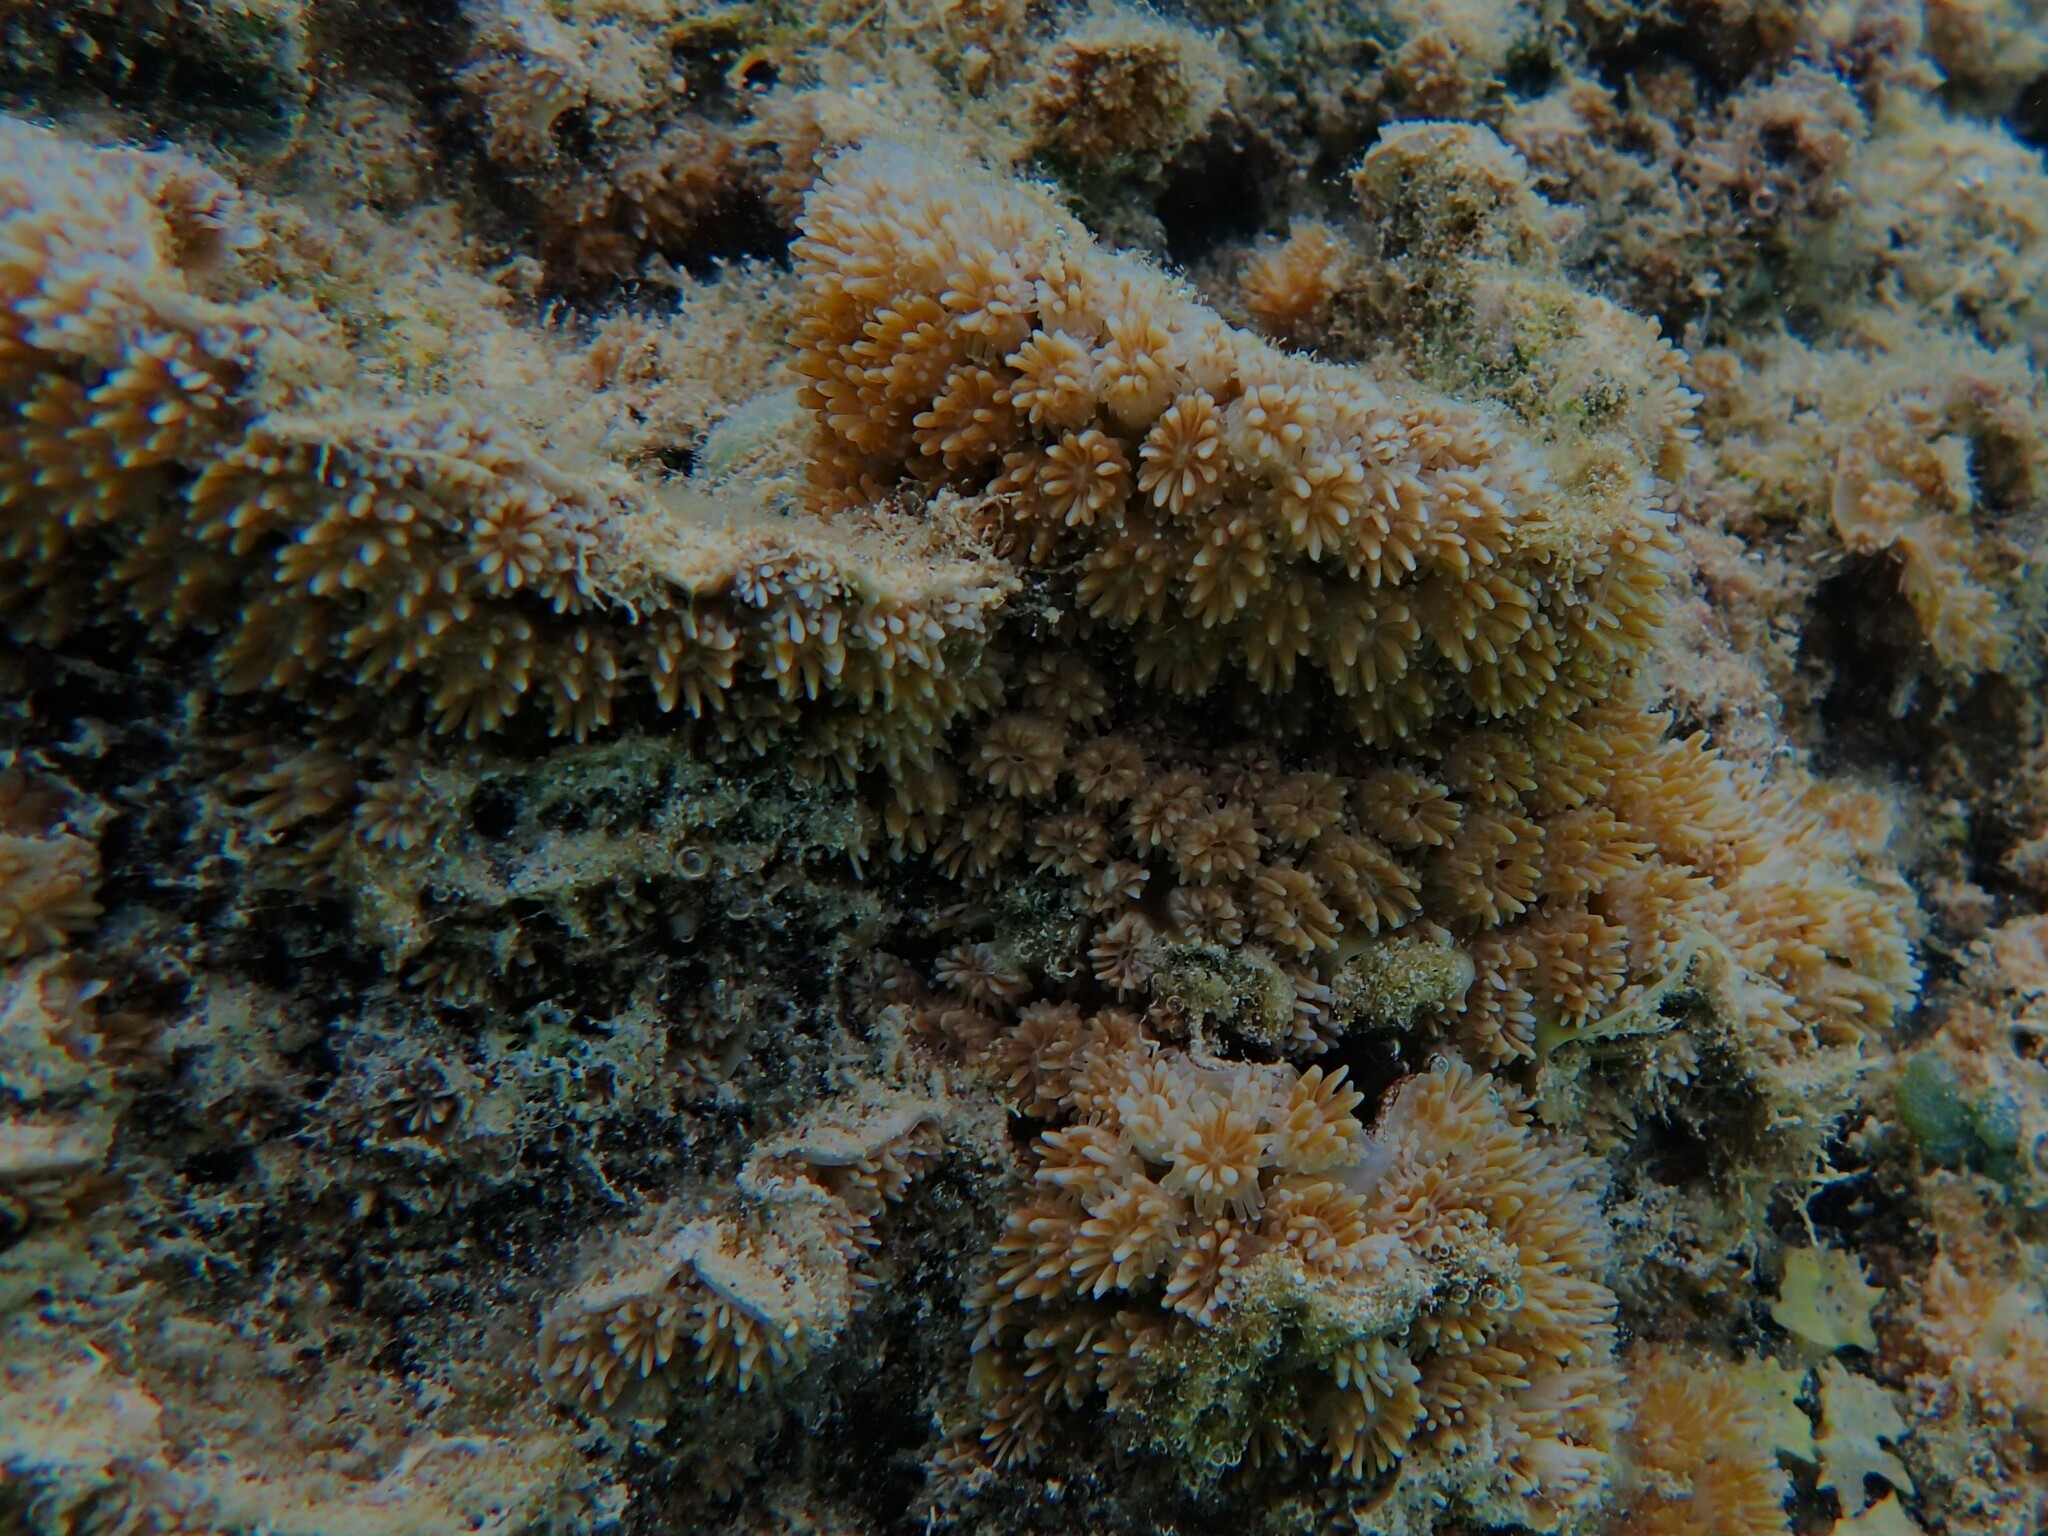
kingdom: Animalia
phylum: Cnidaria
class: Anthozoa
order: Scleractinia
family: Euphylliidae
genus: Galaxea
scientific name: Galaxea fascicularis
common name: Octopus coral
